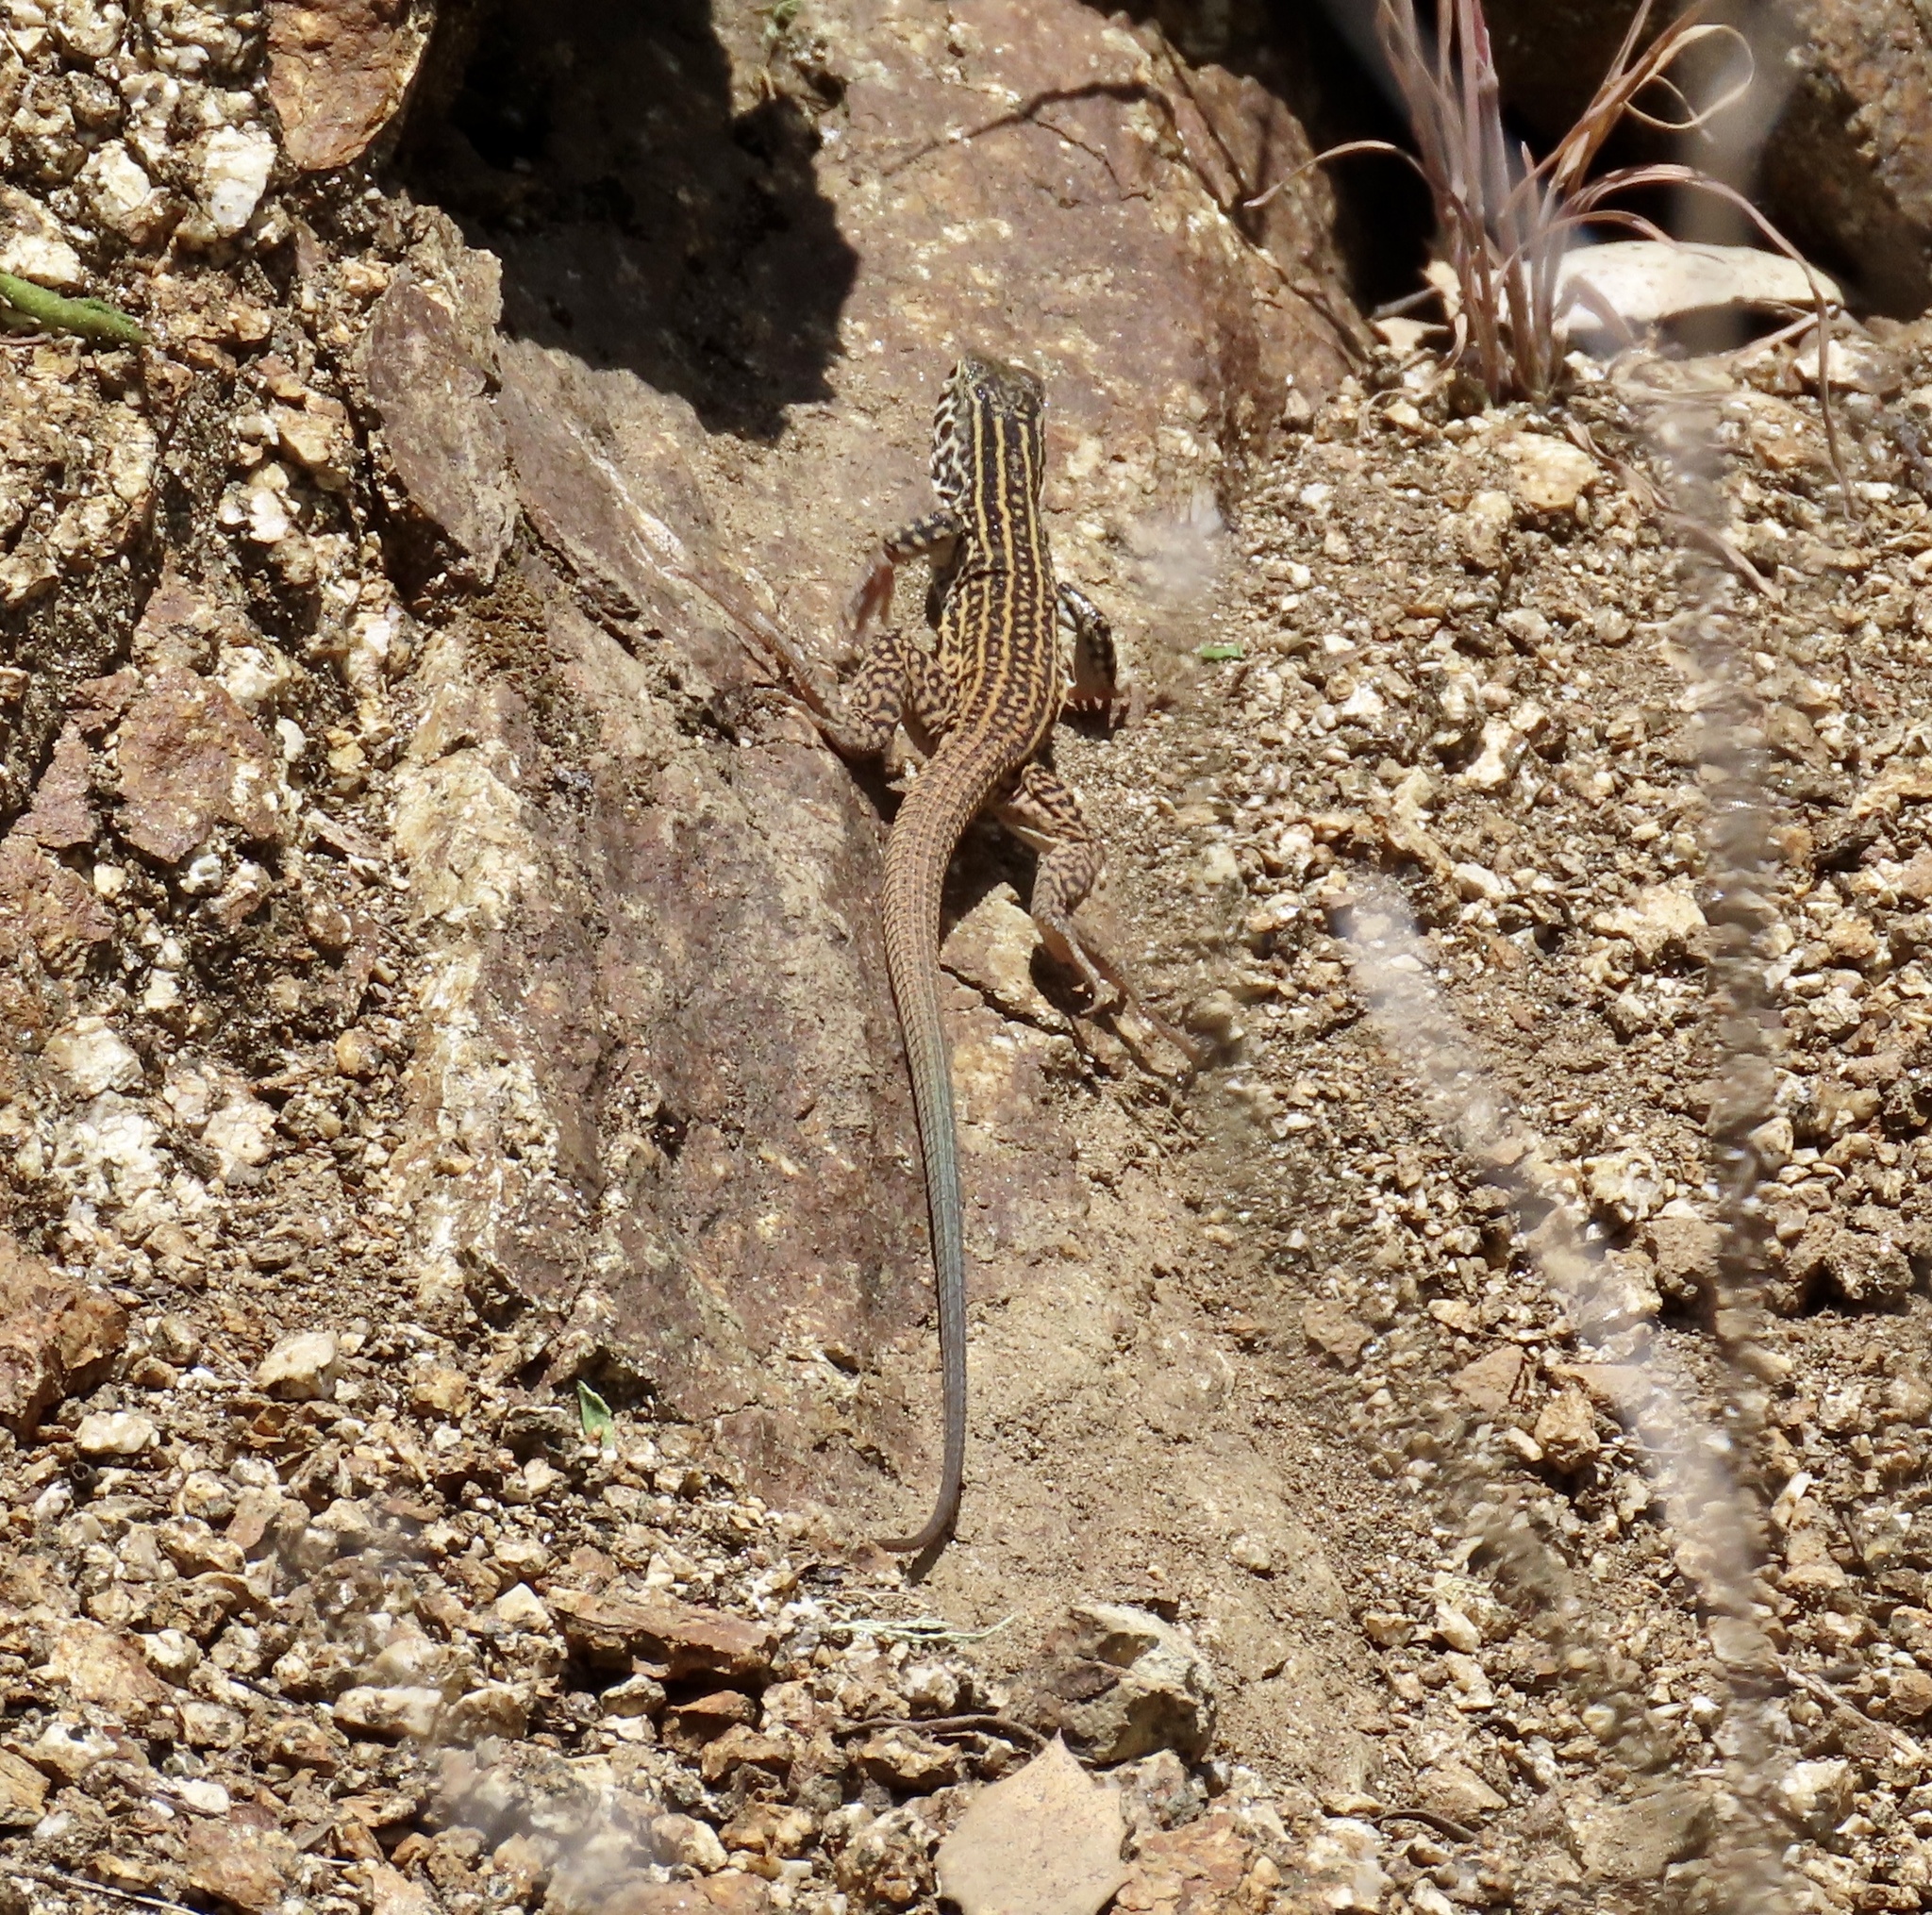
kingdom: Animalia
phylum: Chordata
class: Squamata
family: Teiidae
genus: Aspidoscelis
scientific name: Aspidoscelis tigris
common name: Tiger whiptail
